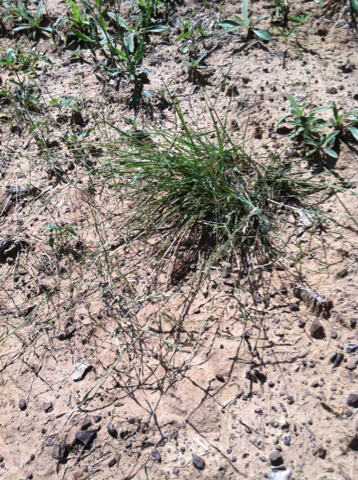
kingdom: Plantae
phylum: Tracheophyta
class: Liliopsida
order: Poales
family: Poaceae
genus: Eragrostis
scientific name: Eragrostis sessilispica
